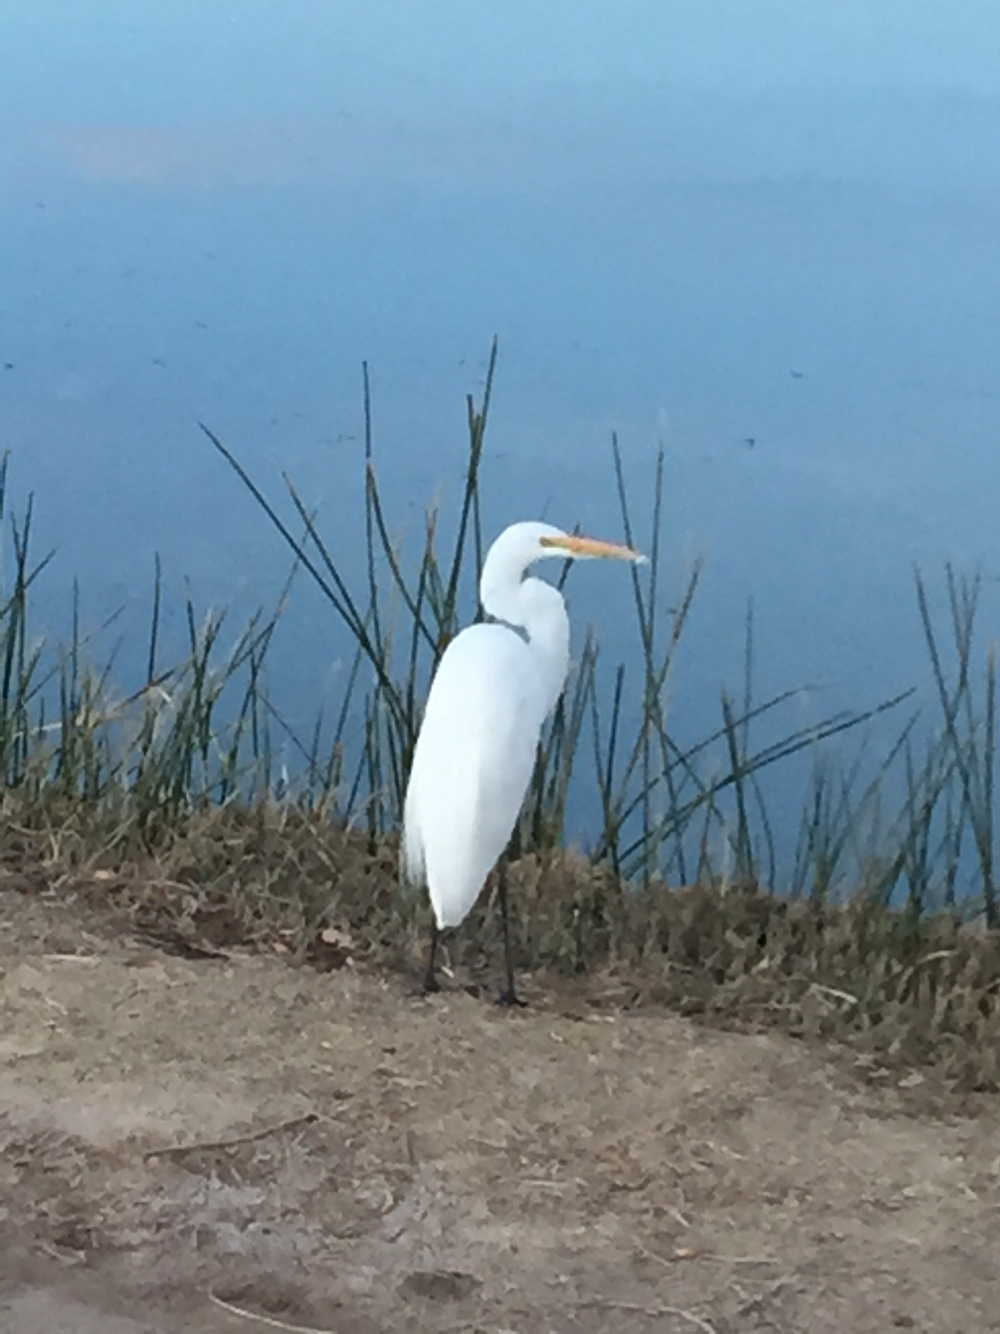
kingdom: Animalia
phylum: Chordata
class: Aves
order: Pelecaniformes
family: Ardeidae
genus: Ardea
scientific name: Ardea alba
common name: Great egret
